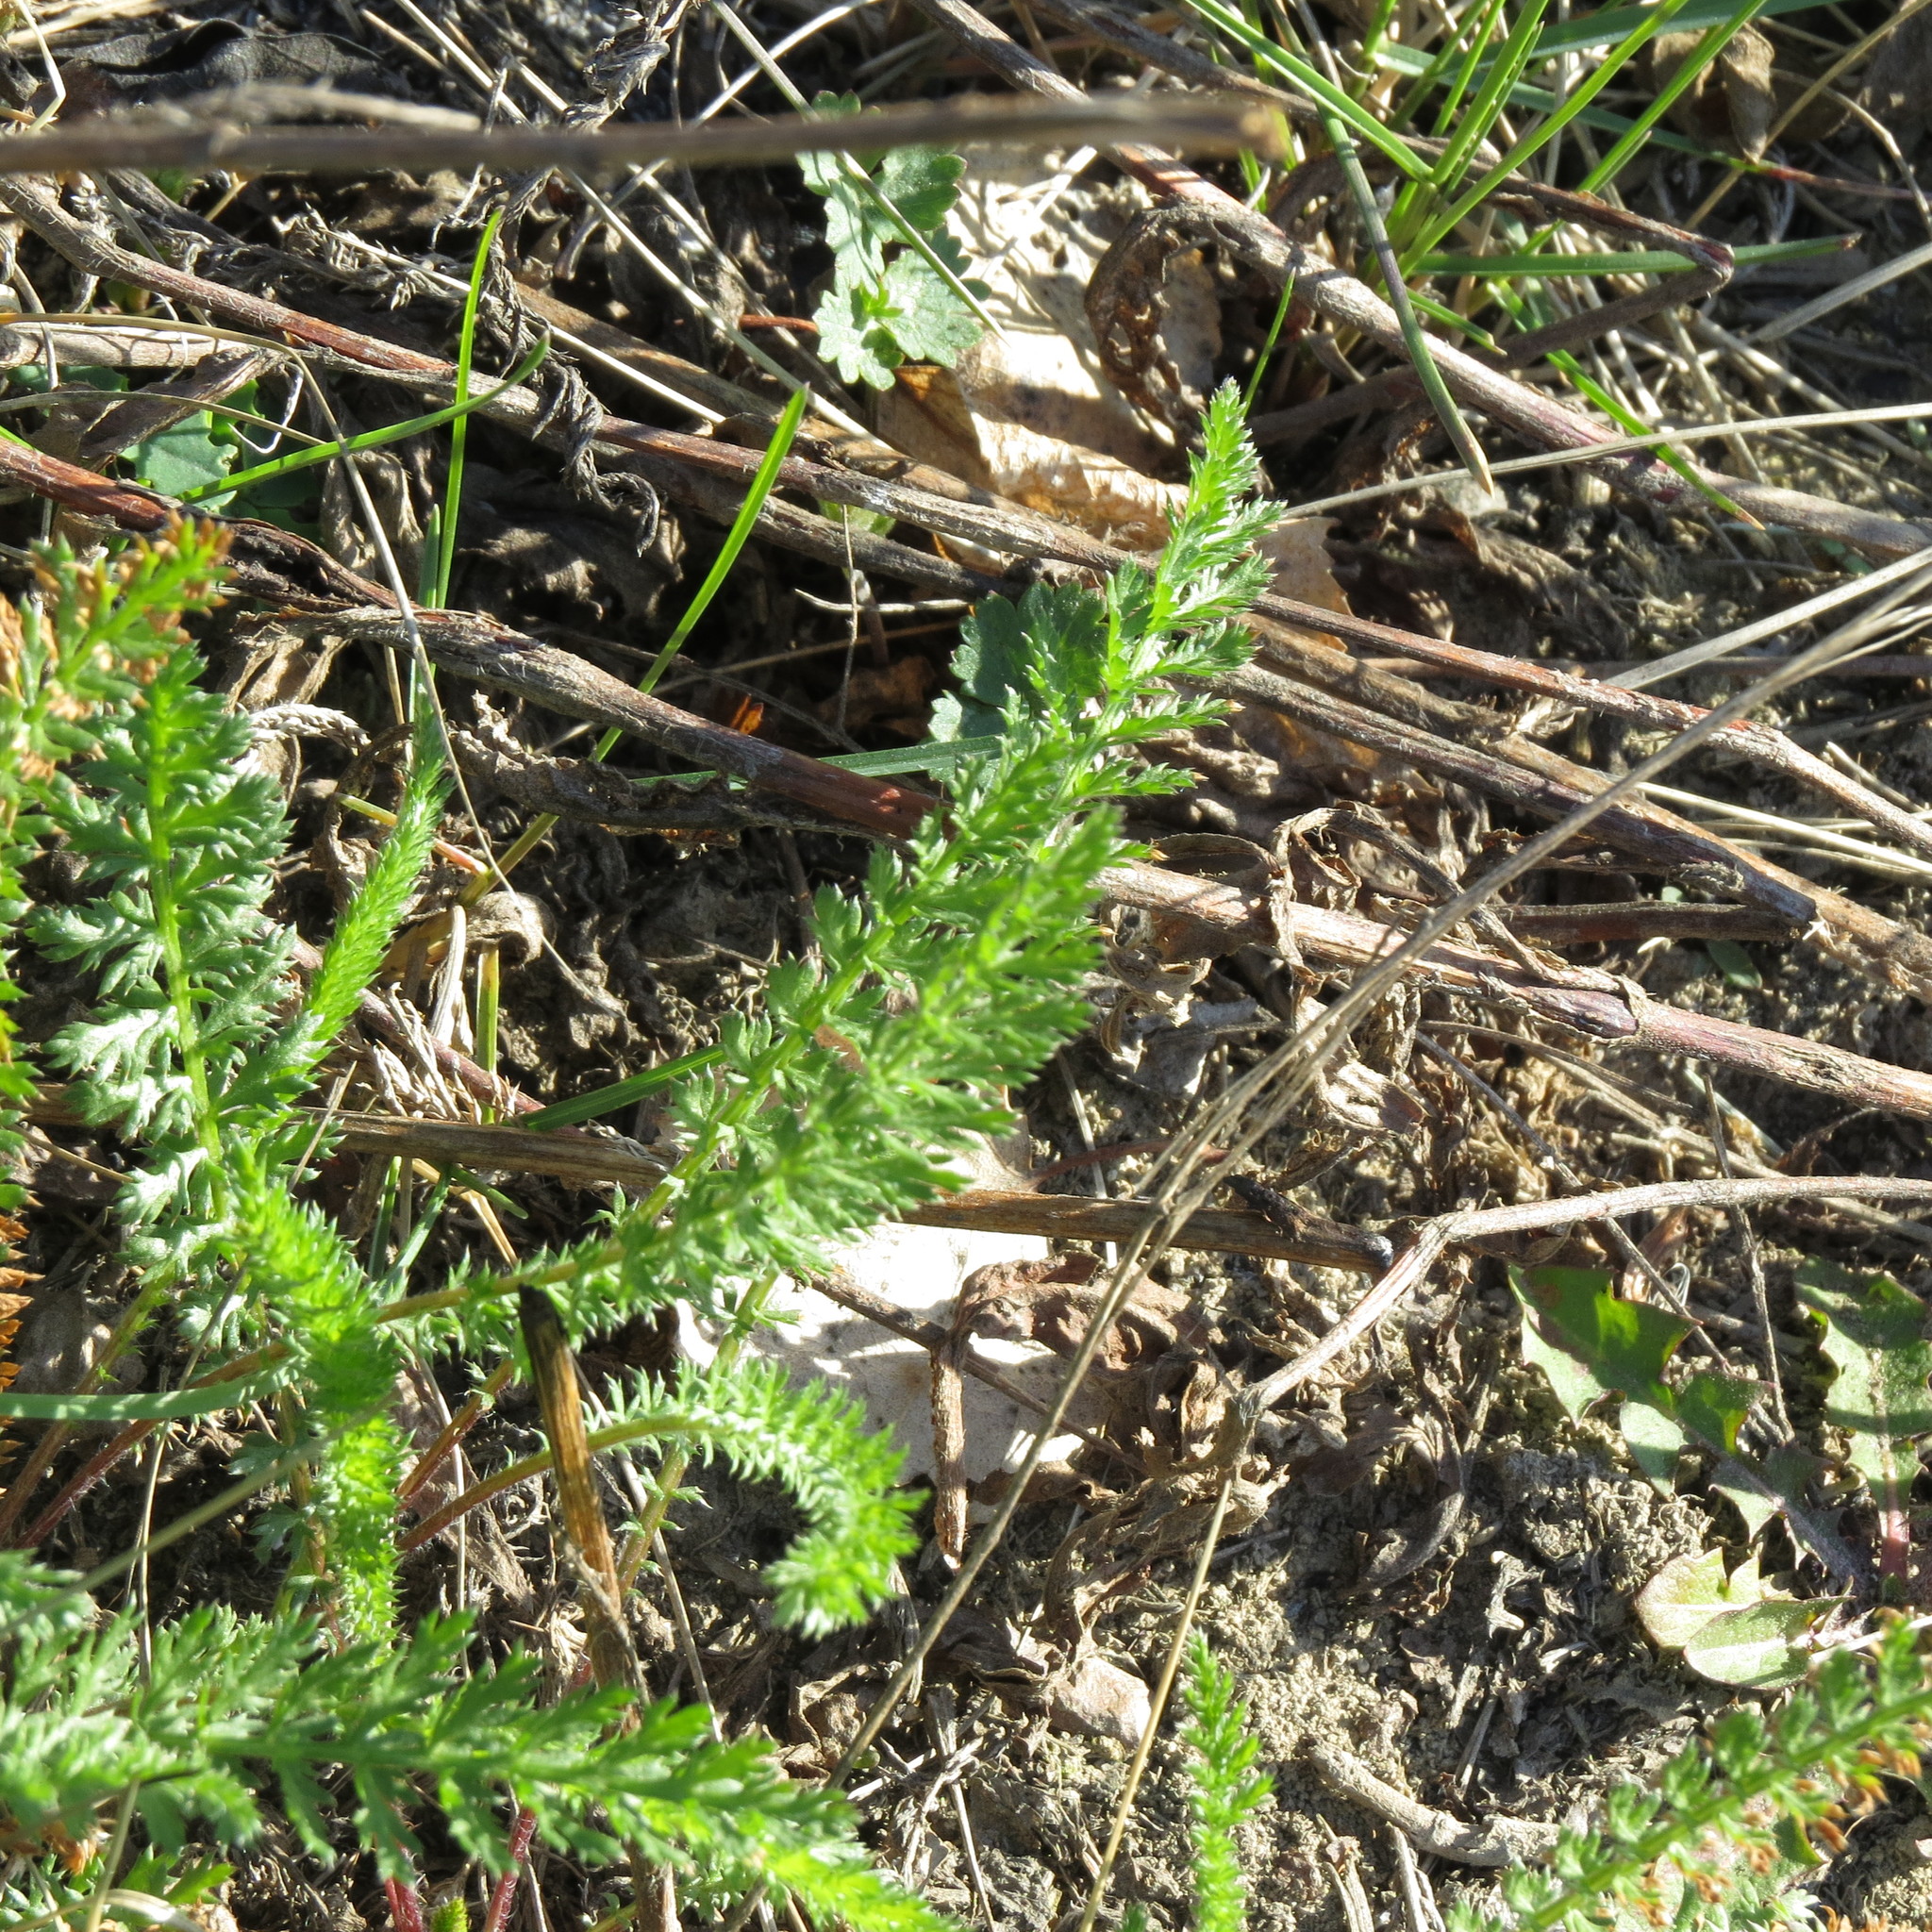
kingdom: Plantae
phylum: Tracheophyta
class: Magnoliopsida
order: Asterales
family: Asteraceae
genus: Achillea
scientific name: Achillea millefolium
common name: Yarrow
